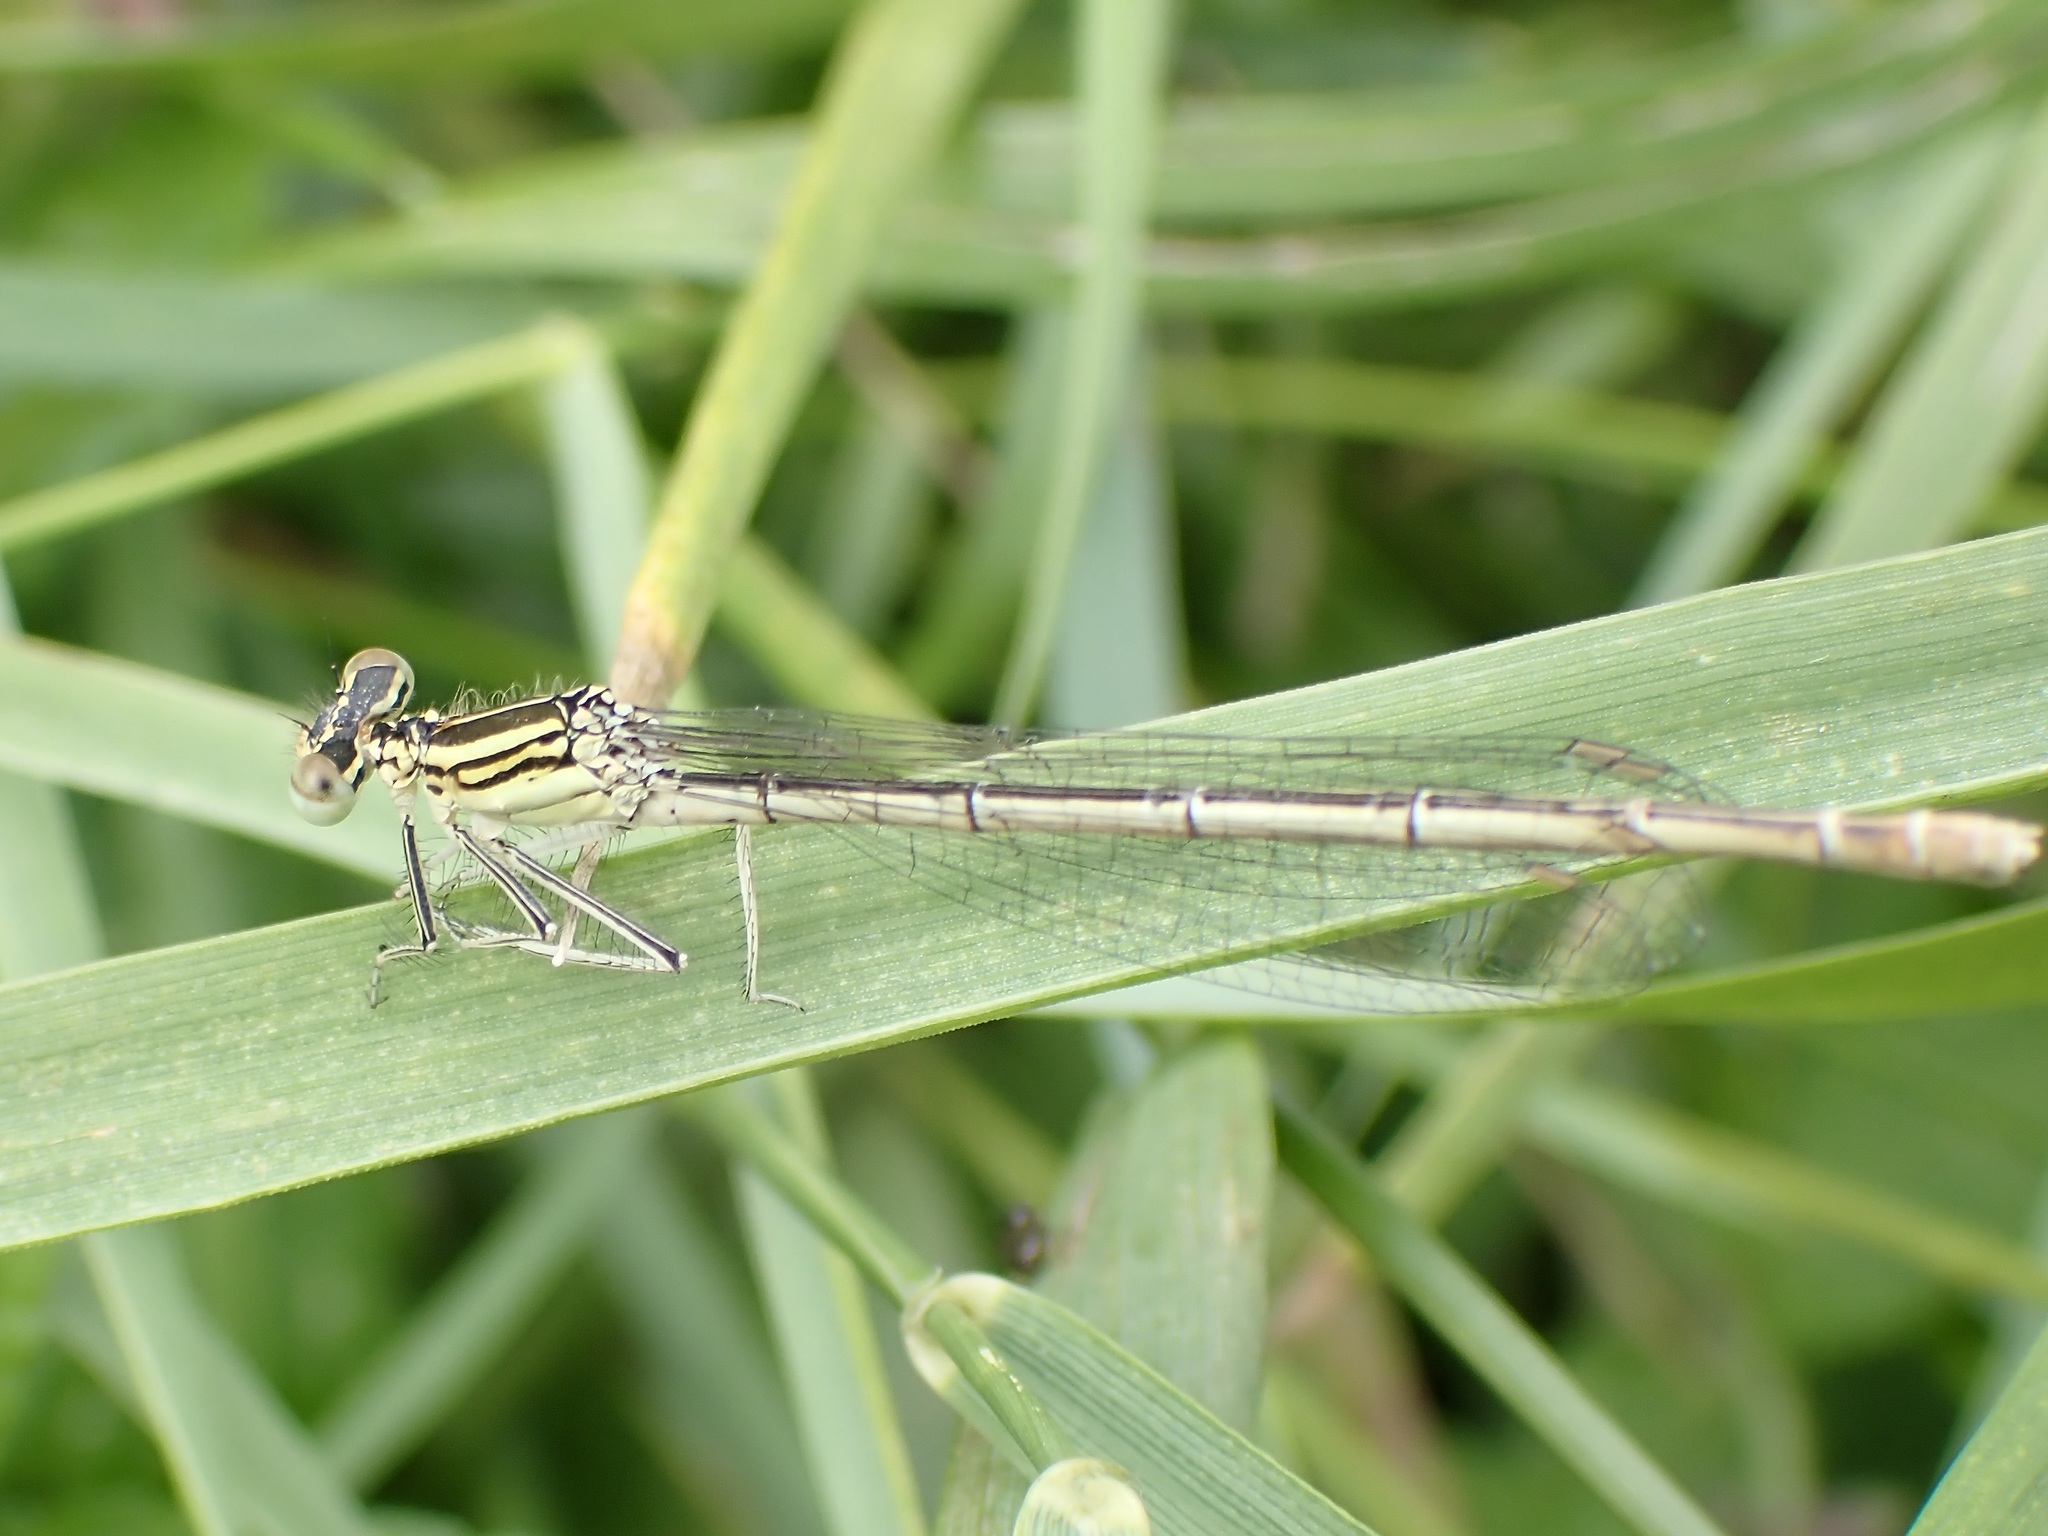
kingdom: Animalia
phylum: Arthropoda
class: Insecta
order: Odonata
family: Platycnemididae
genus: Platycnemis
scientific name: Platycnemis pennipes
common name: White-legged damselfly
